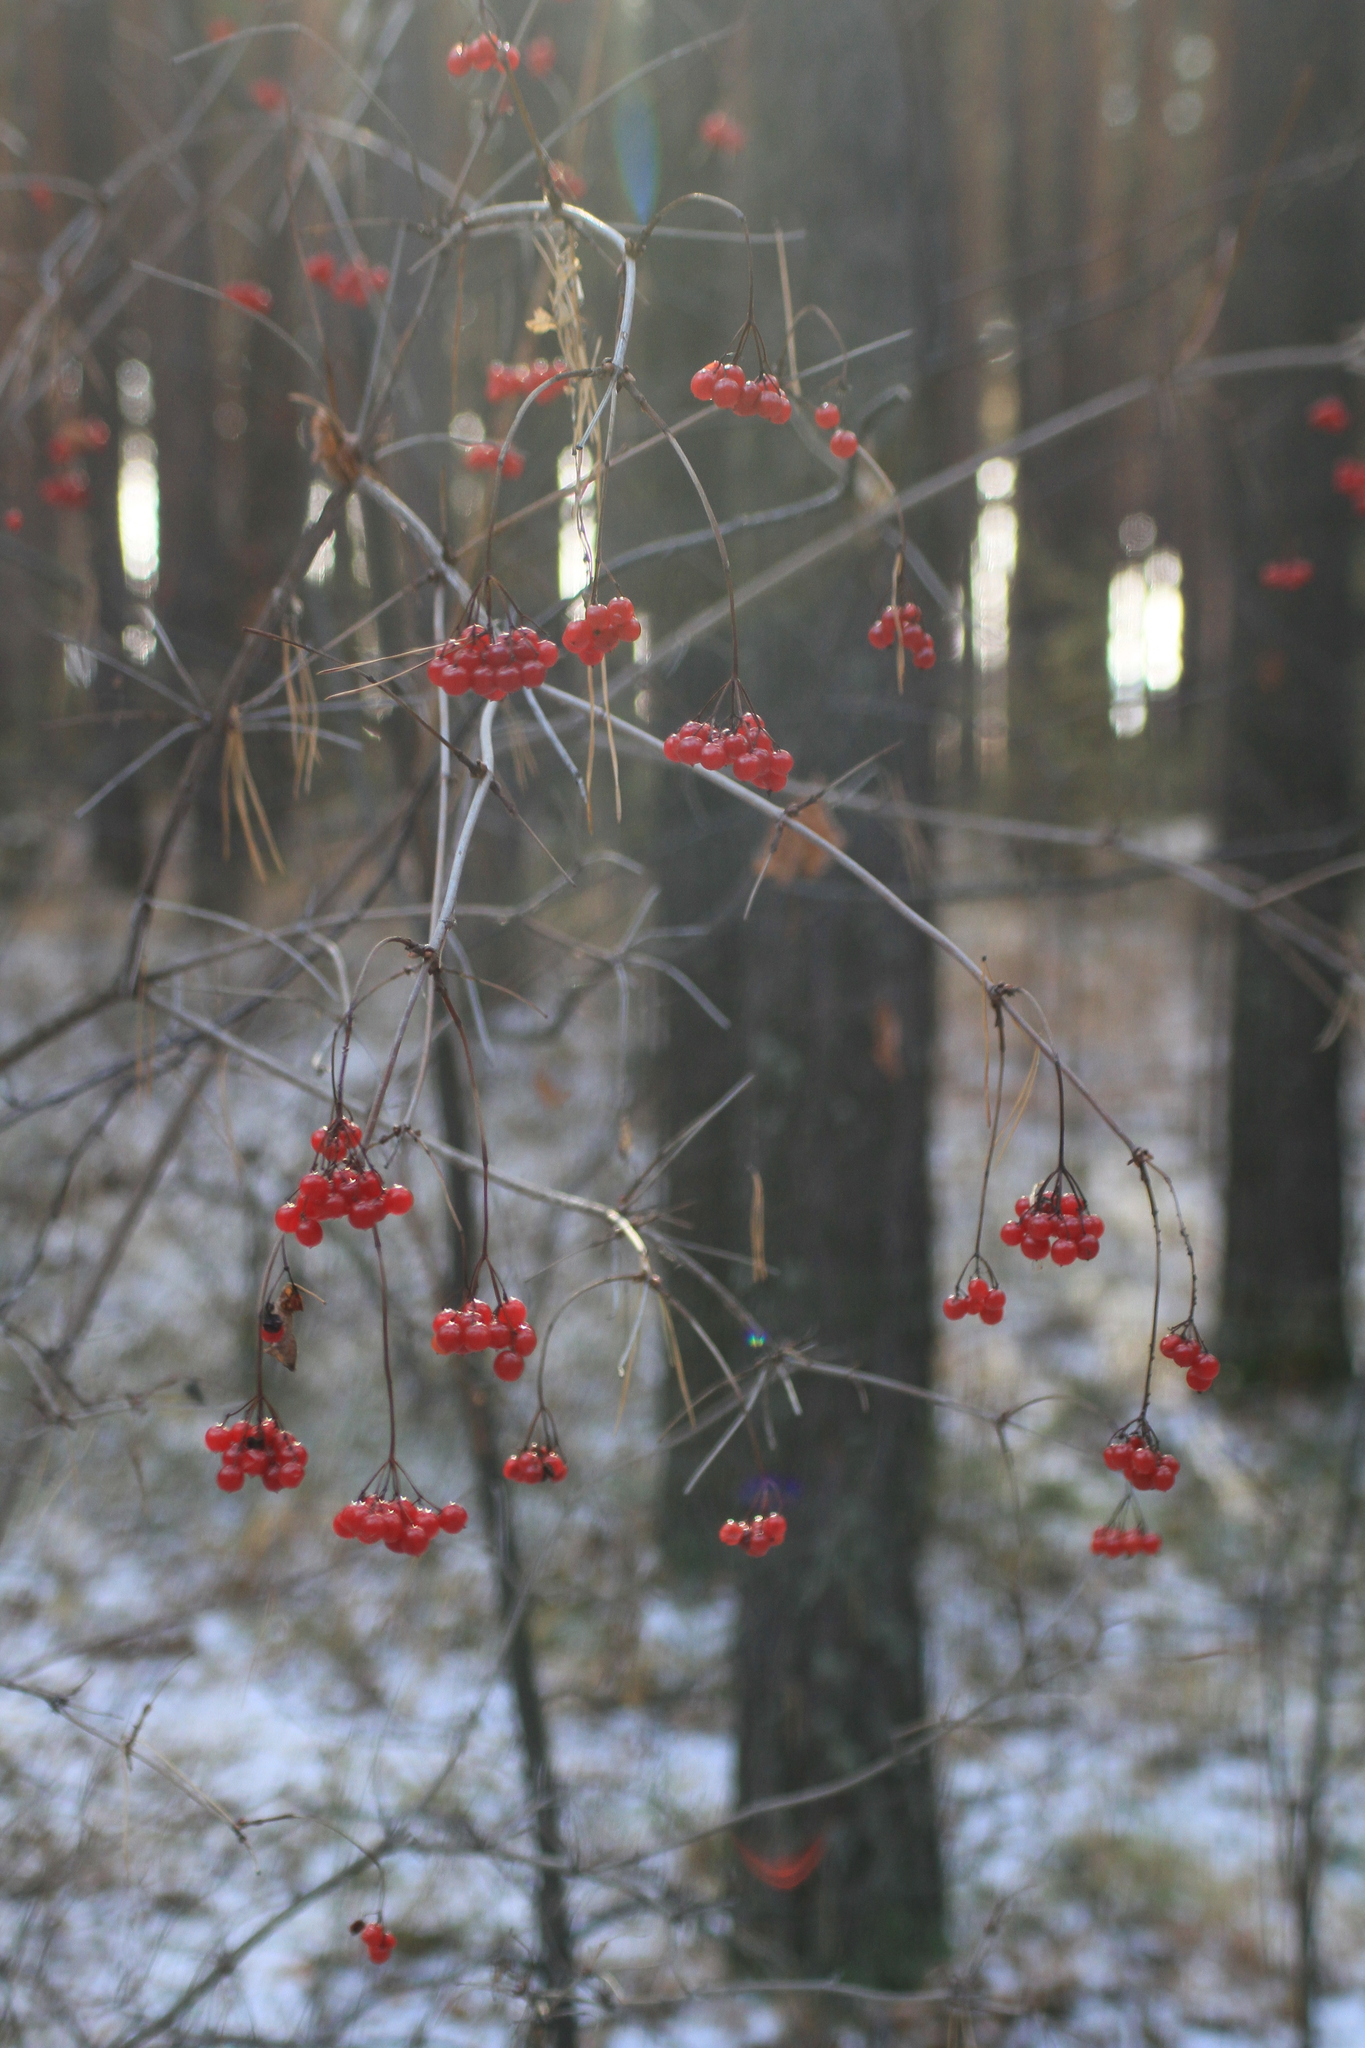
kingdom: Plantae
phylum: Tracheophyta
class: Magnoliopsida
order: Dipsacales
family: Viburnaceae
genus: Viburnum
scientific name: Viburnum opulus
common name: Guelder-rose
